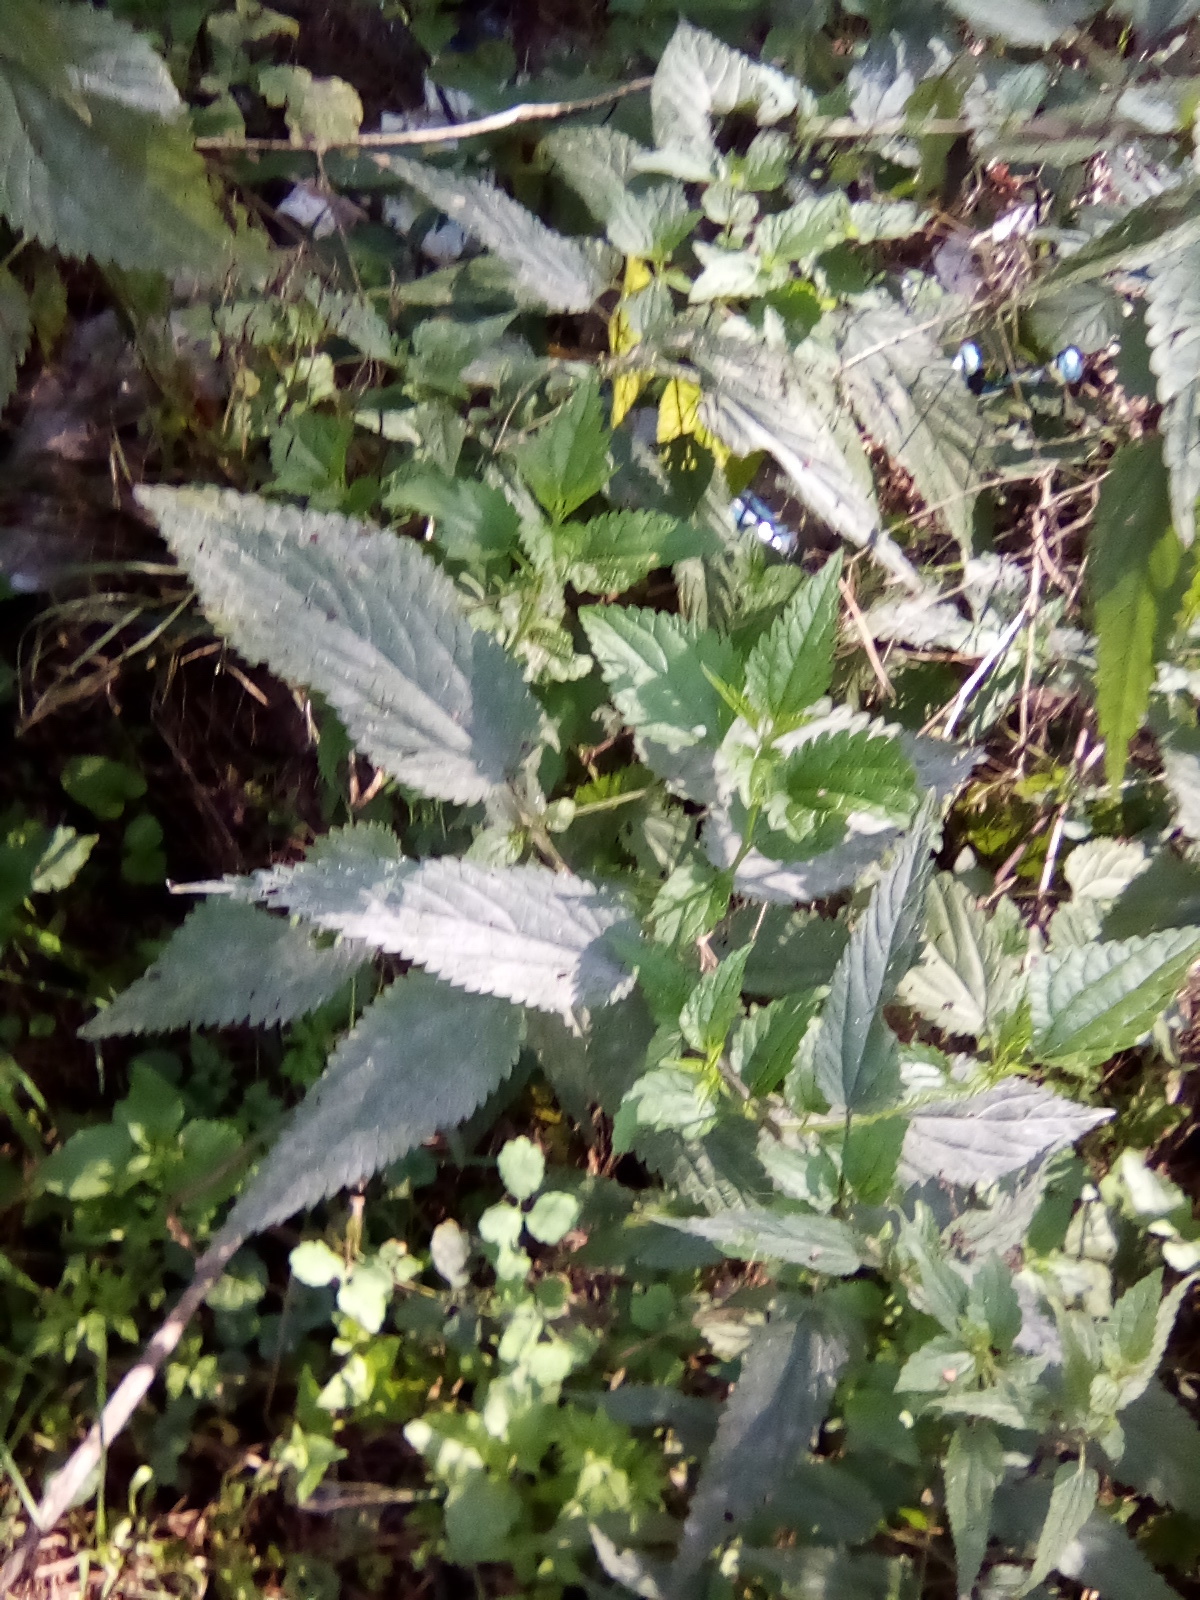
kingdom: Plantae
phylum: Tracheophyta
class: Magnoliopsida
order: Rosales
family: Urticaceae
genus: Urtica
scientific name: Urtica dioica
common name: Common nettle
